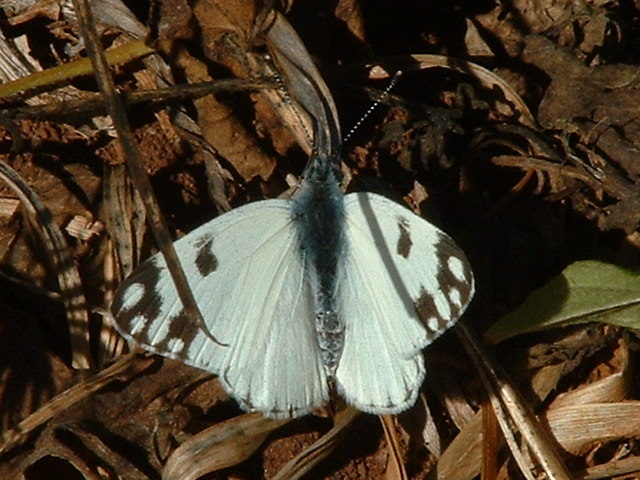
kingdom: Animalia
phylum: Arthropoda
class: Insecta
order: Lepidoptera
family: Pieridae
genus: Pontia
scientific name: Pontia helice
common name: Meadow white
